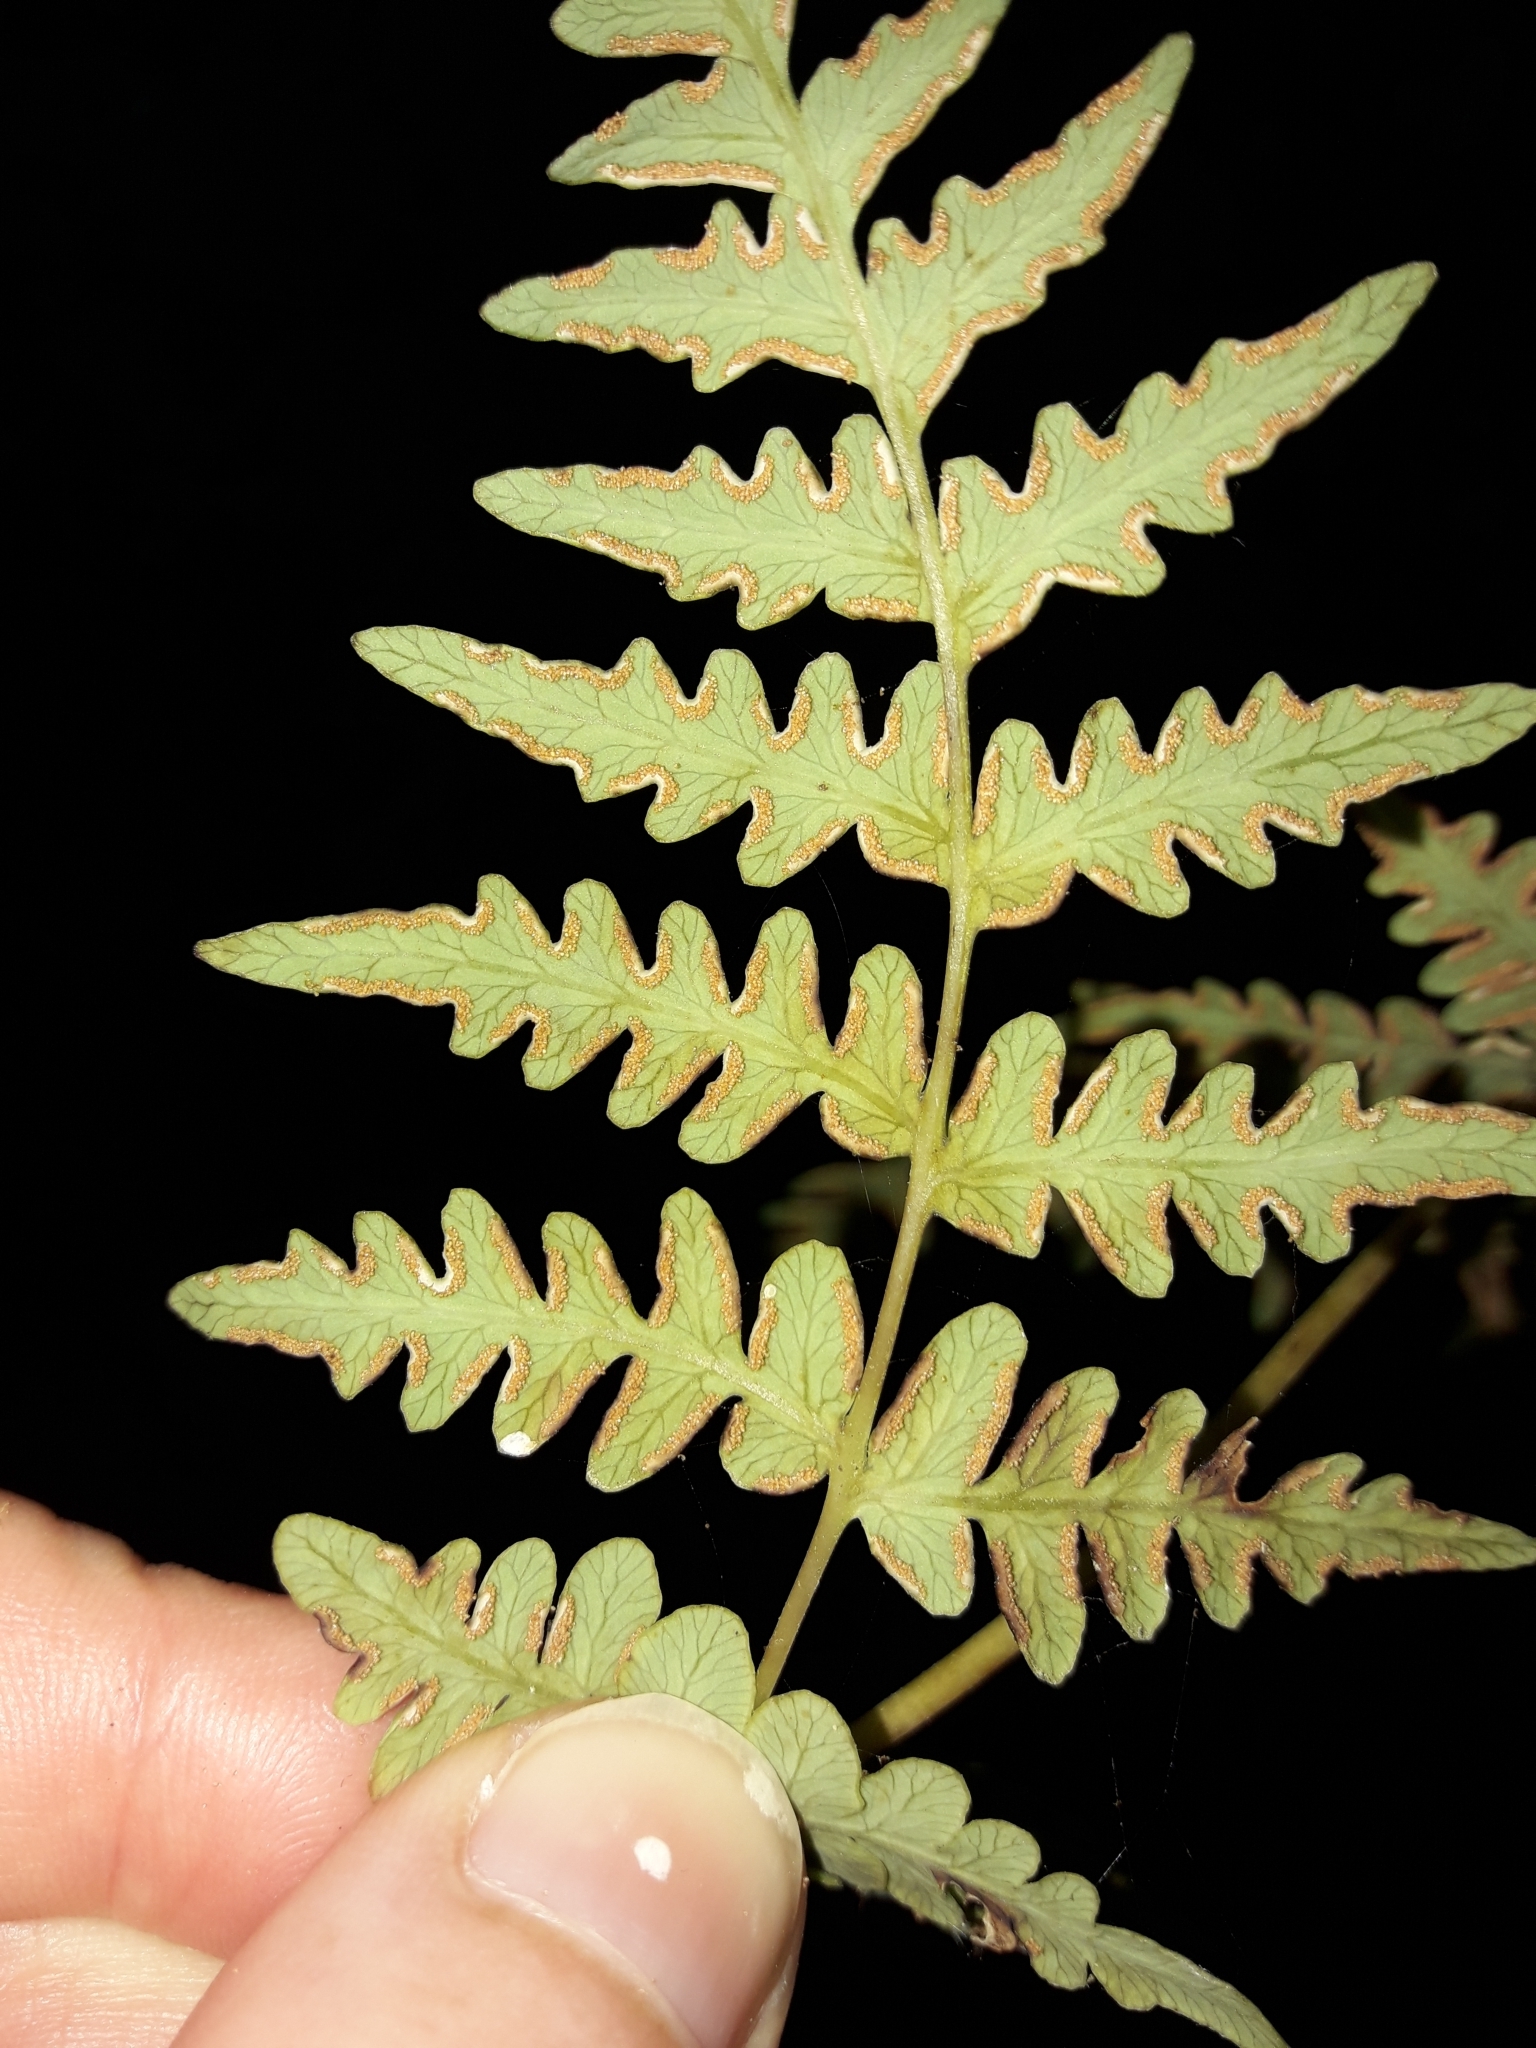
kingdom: Plantae
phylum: Tracheophyta
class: Polypodiopsida
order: Polypodiales
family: Dennstaedtiaceae
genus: Histiopteris
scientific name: Histiopteris incisa
